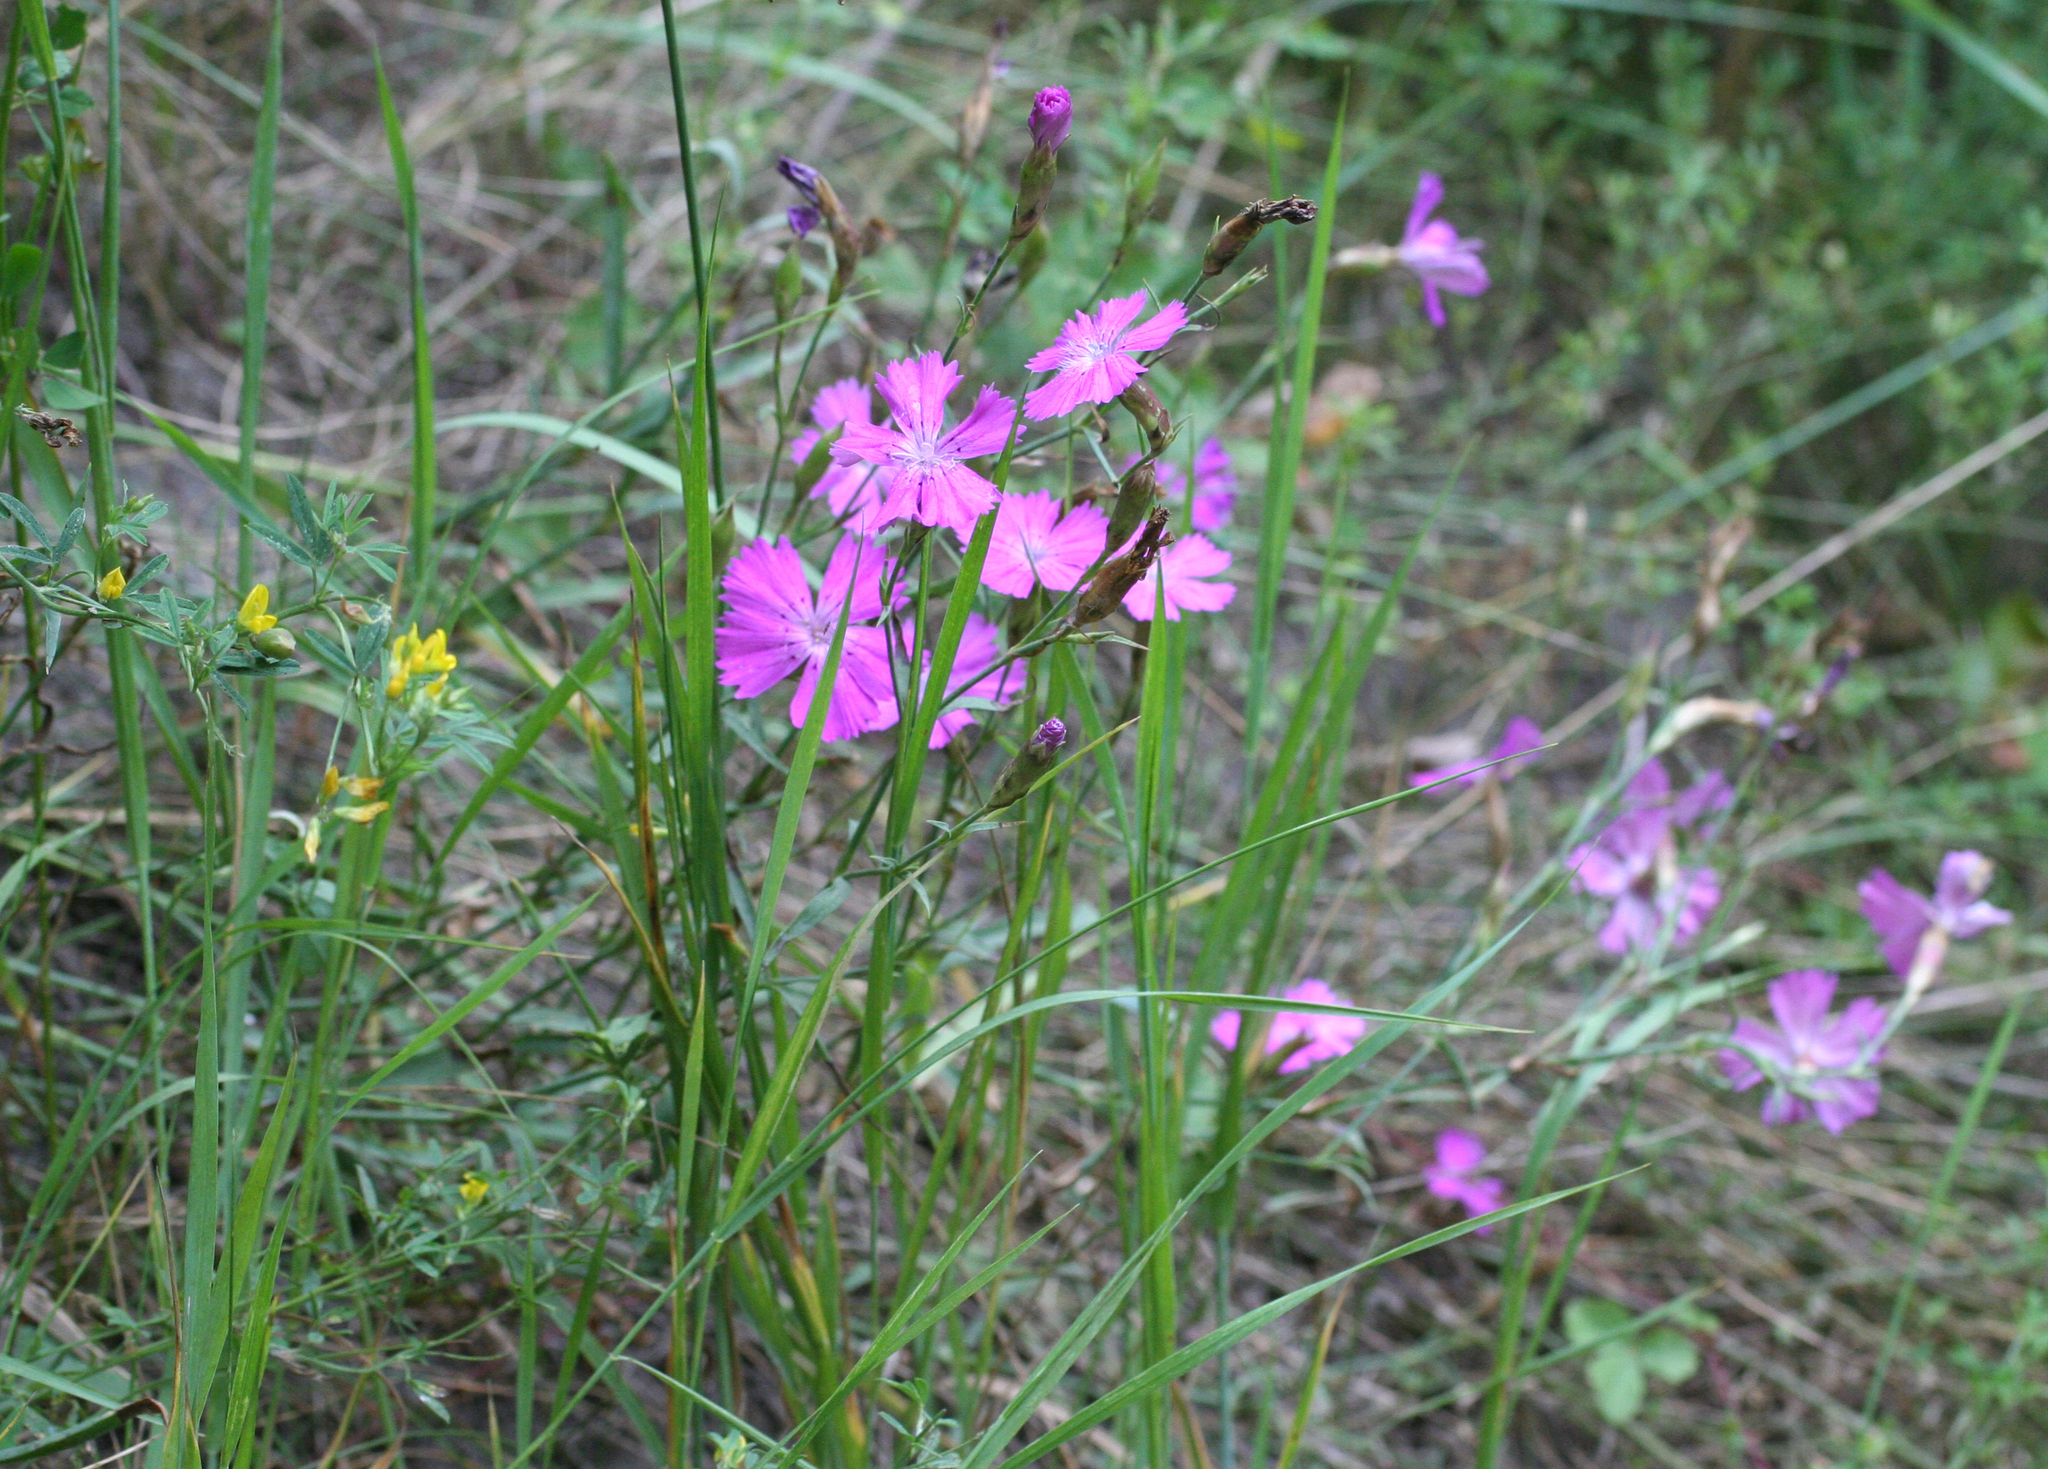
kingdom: Plantae
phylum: Tracheophyta
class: Magnoliopsida
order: Caryophyllales
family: Caryophyllaceae
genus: Dianthus
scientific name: Dianthus chinensis
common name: Rainbow pink
